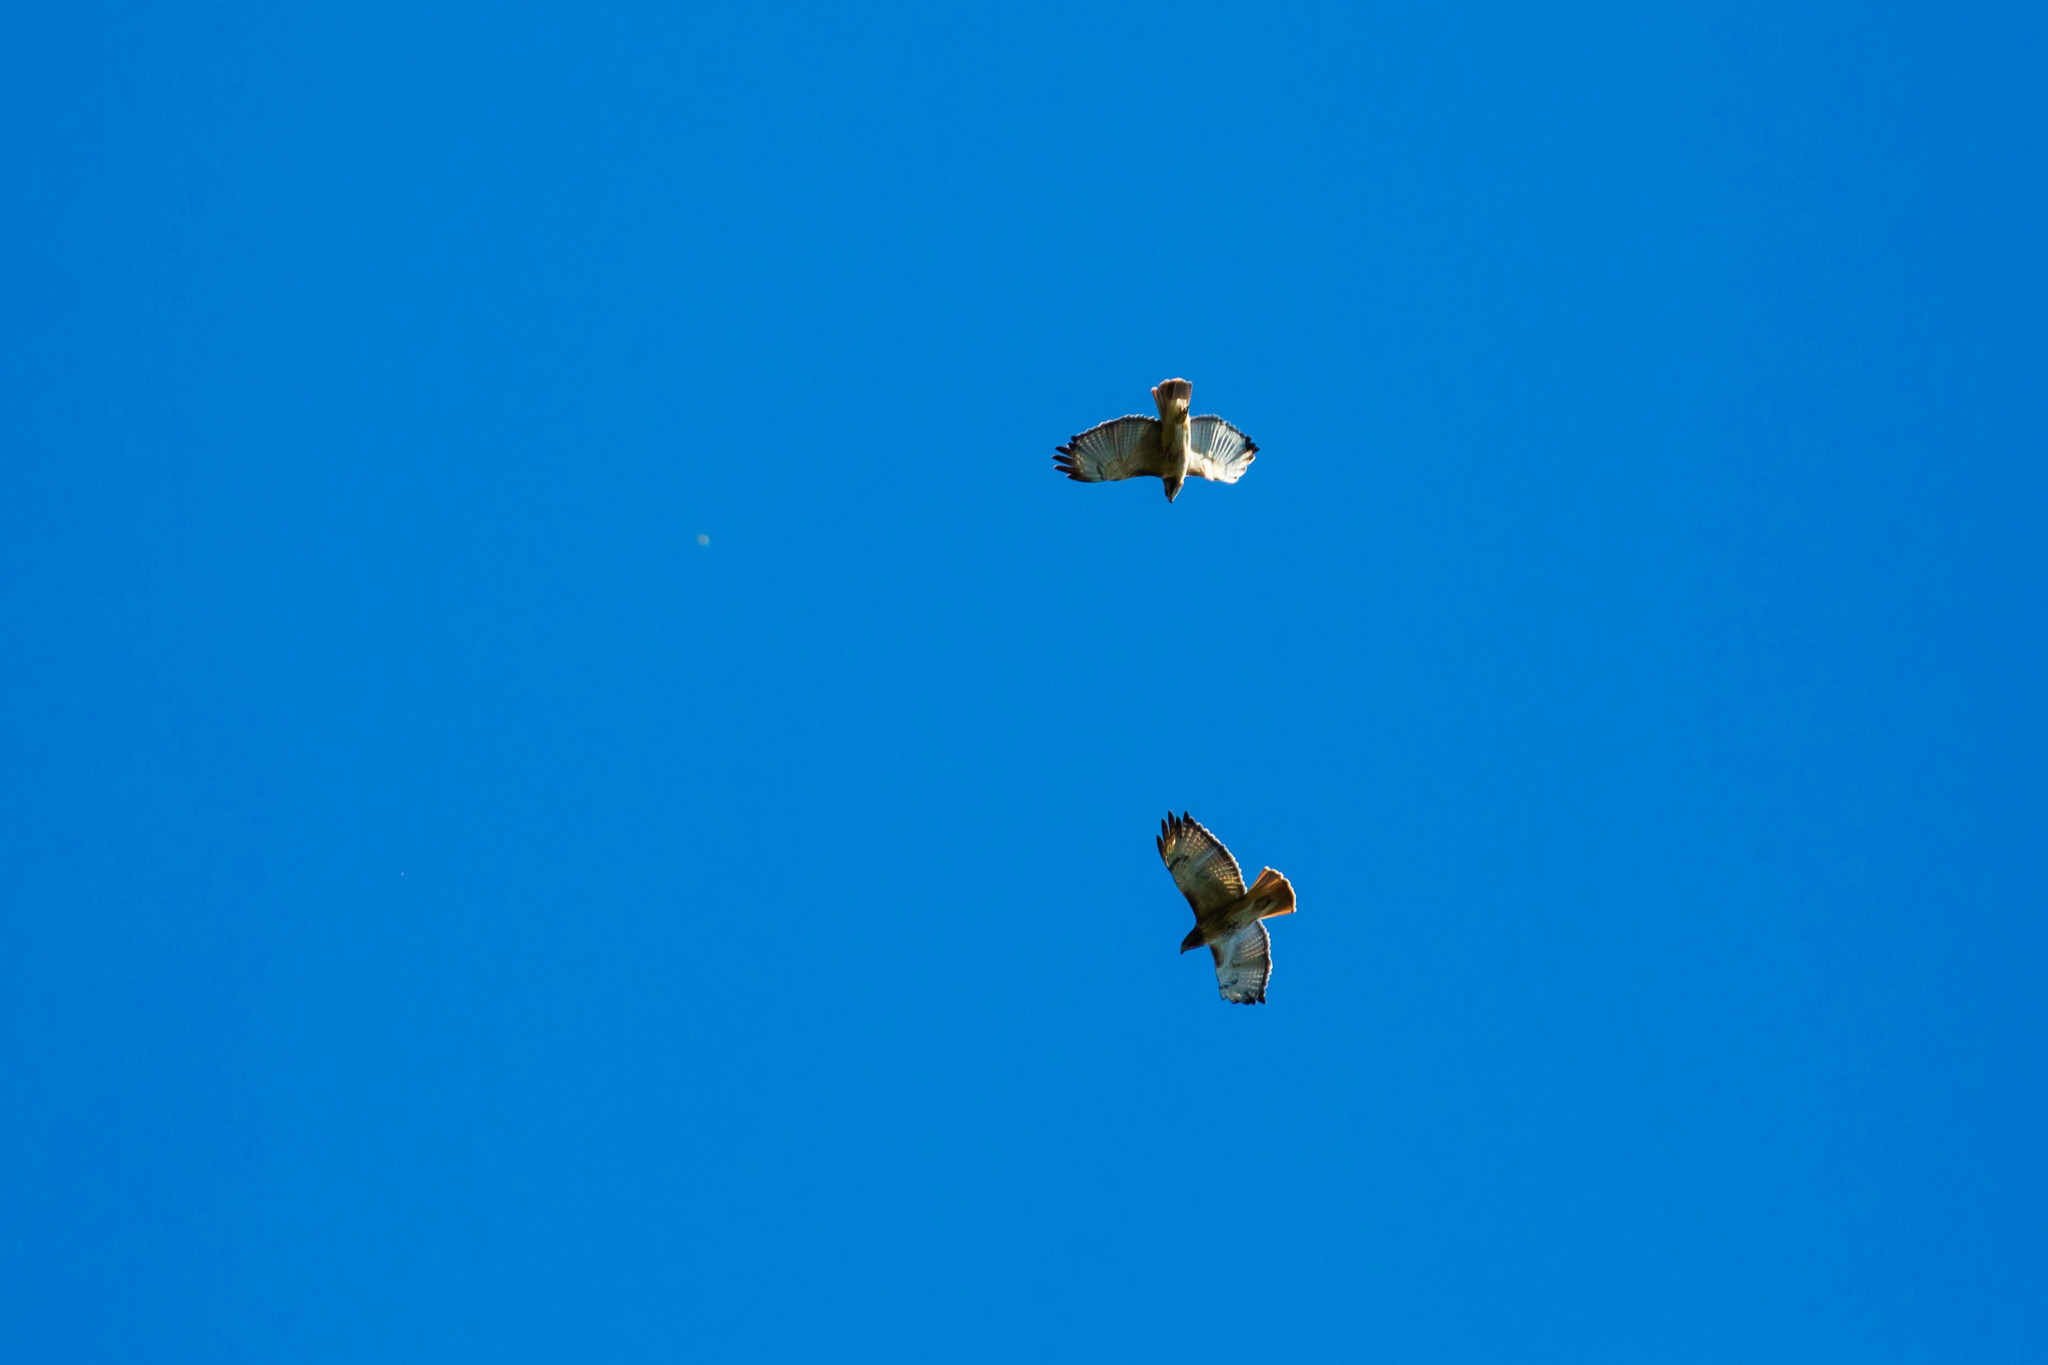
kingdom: Animalia
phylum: Chordata
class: Aves
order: Accipitriformes
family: Accipitridae
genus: Buteo
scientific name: Buteo jamaicensis
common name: Red-tailed hawk
